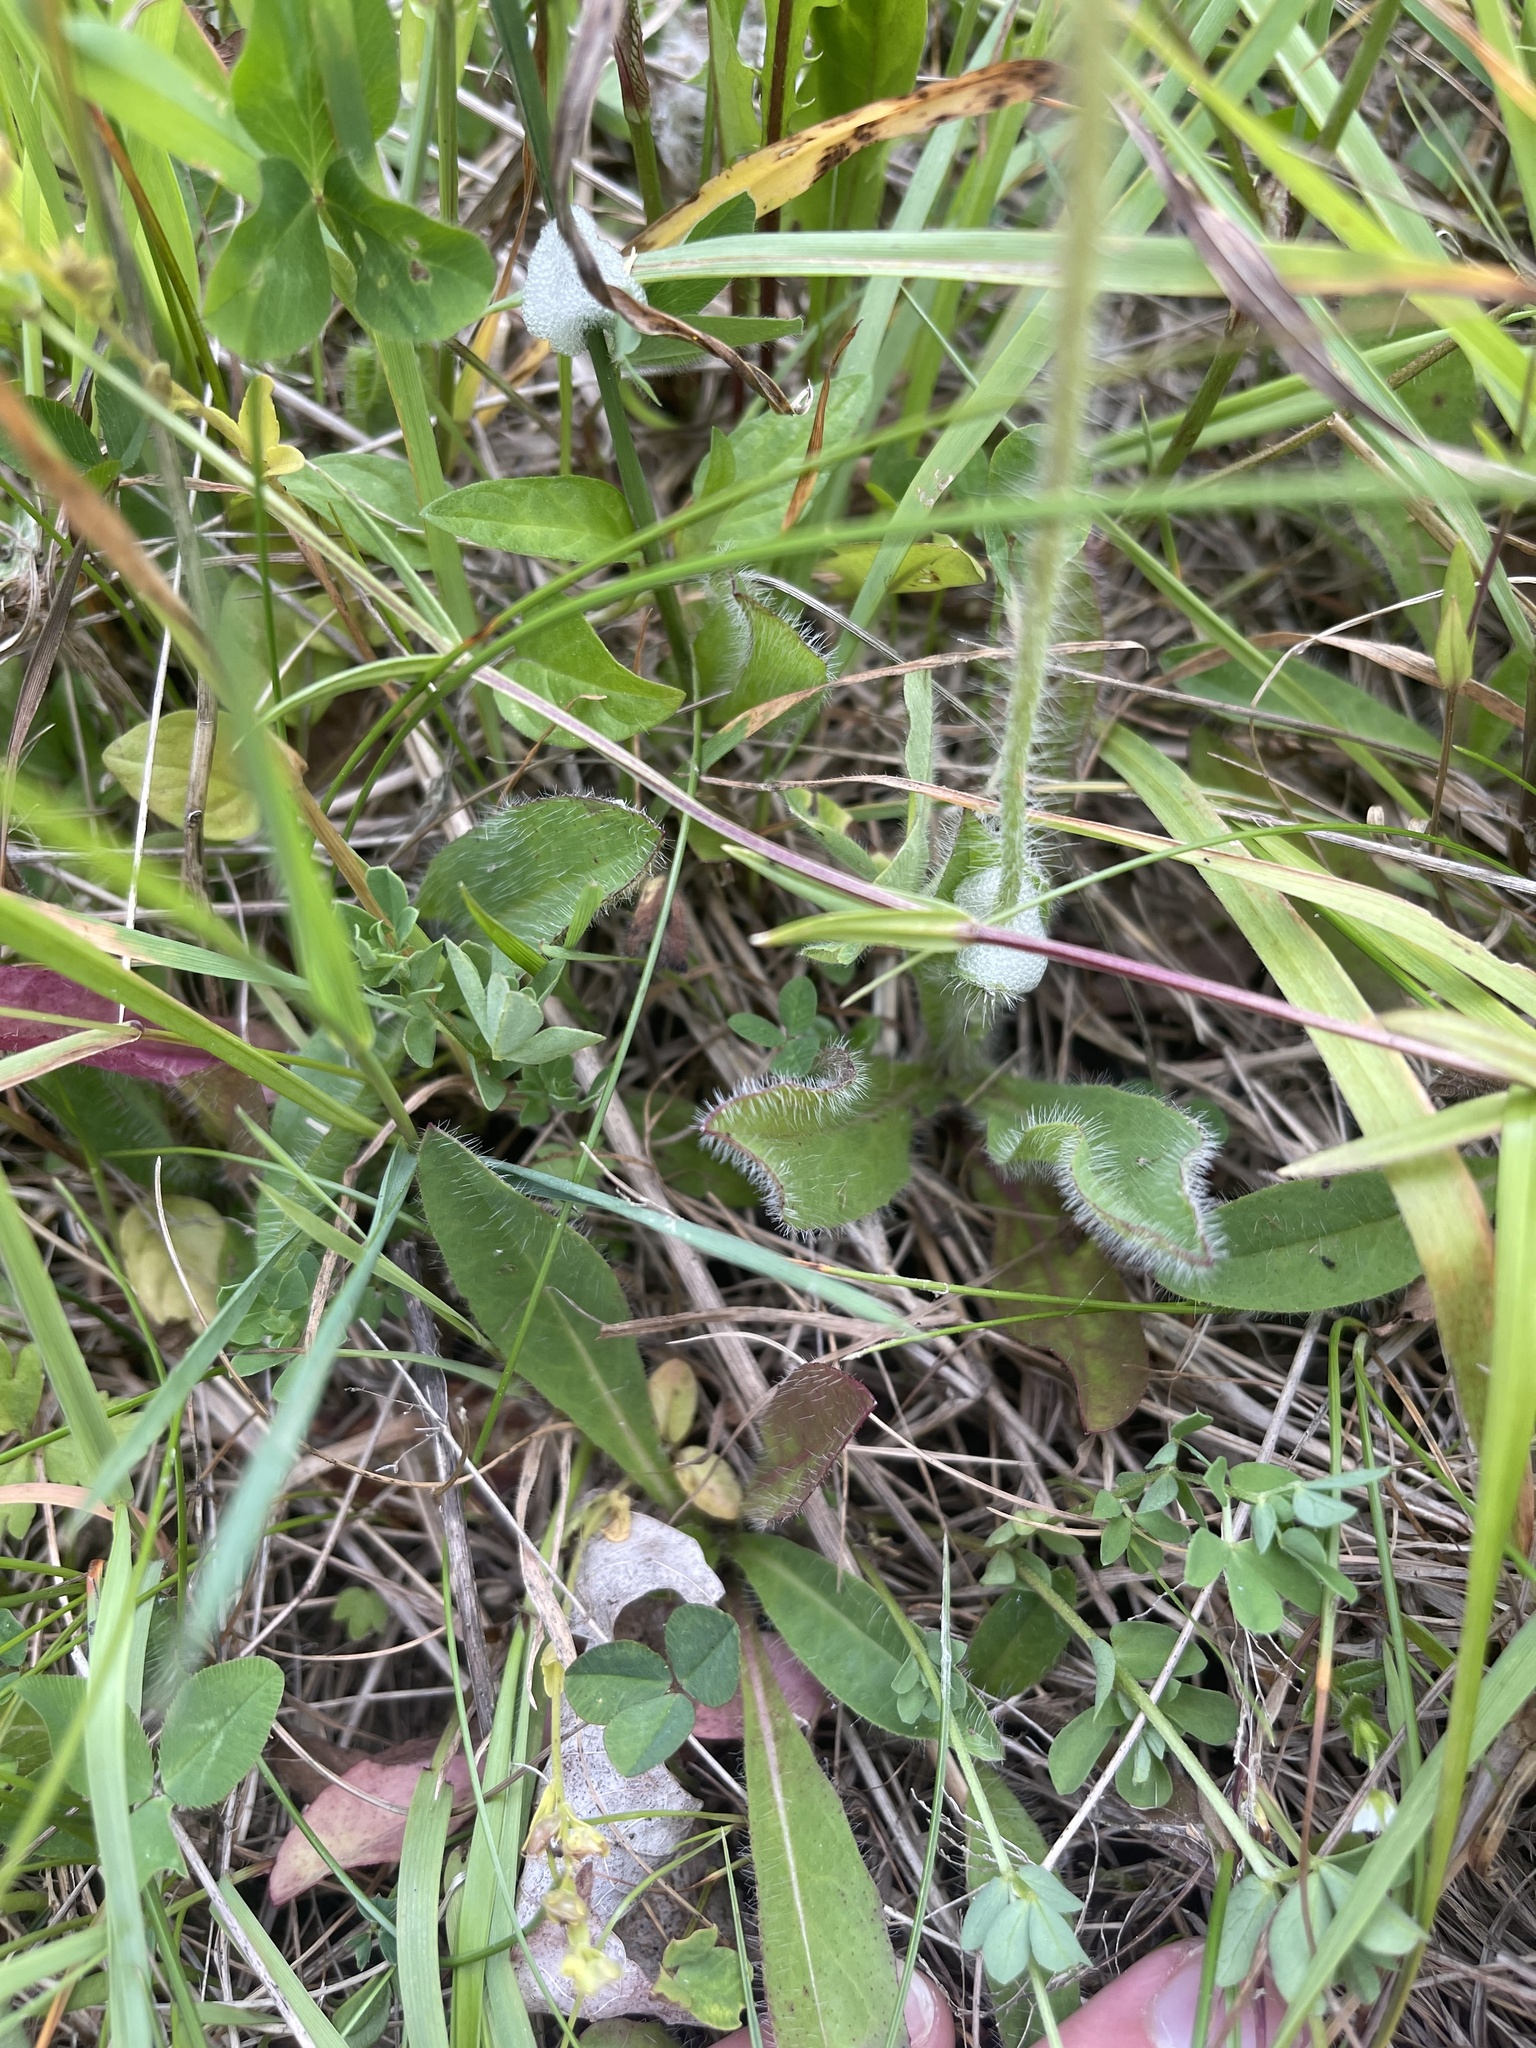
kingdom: Plantae
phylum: Tracheophyta
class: Magnoliopsida
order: Asterales
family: Asteraceae
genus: Pilosella
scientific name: Pilosella aurantiaca
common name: Fox-and-cubs
